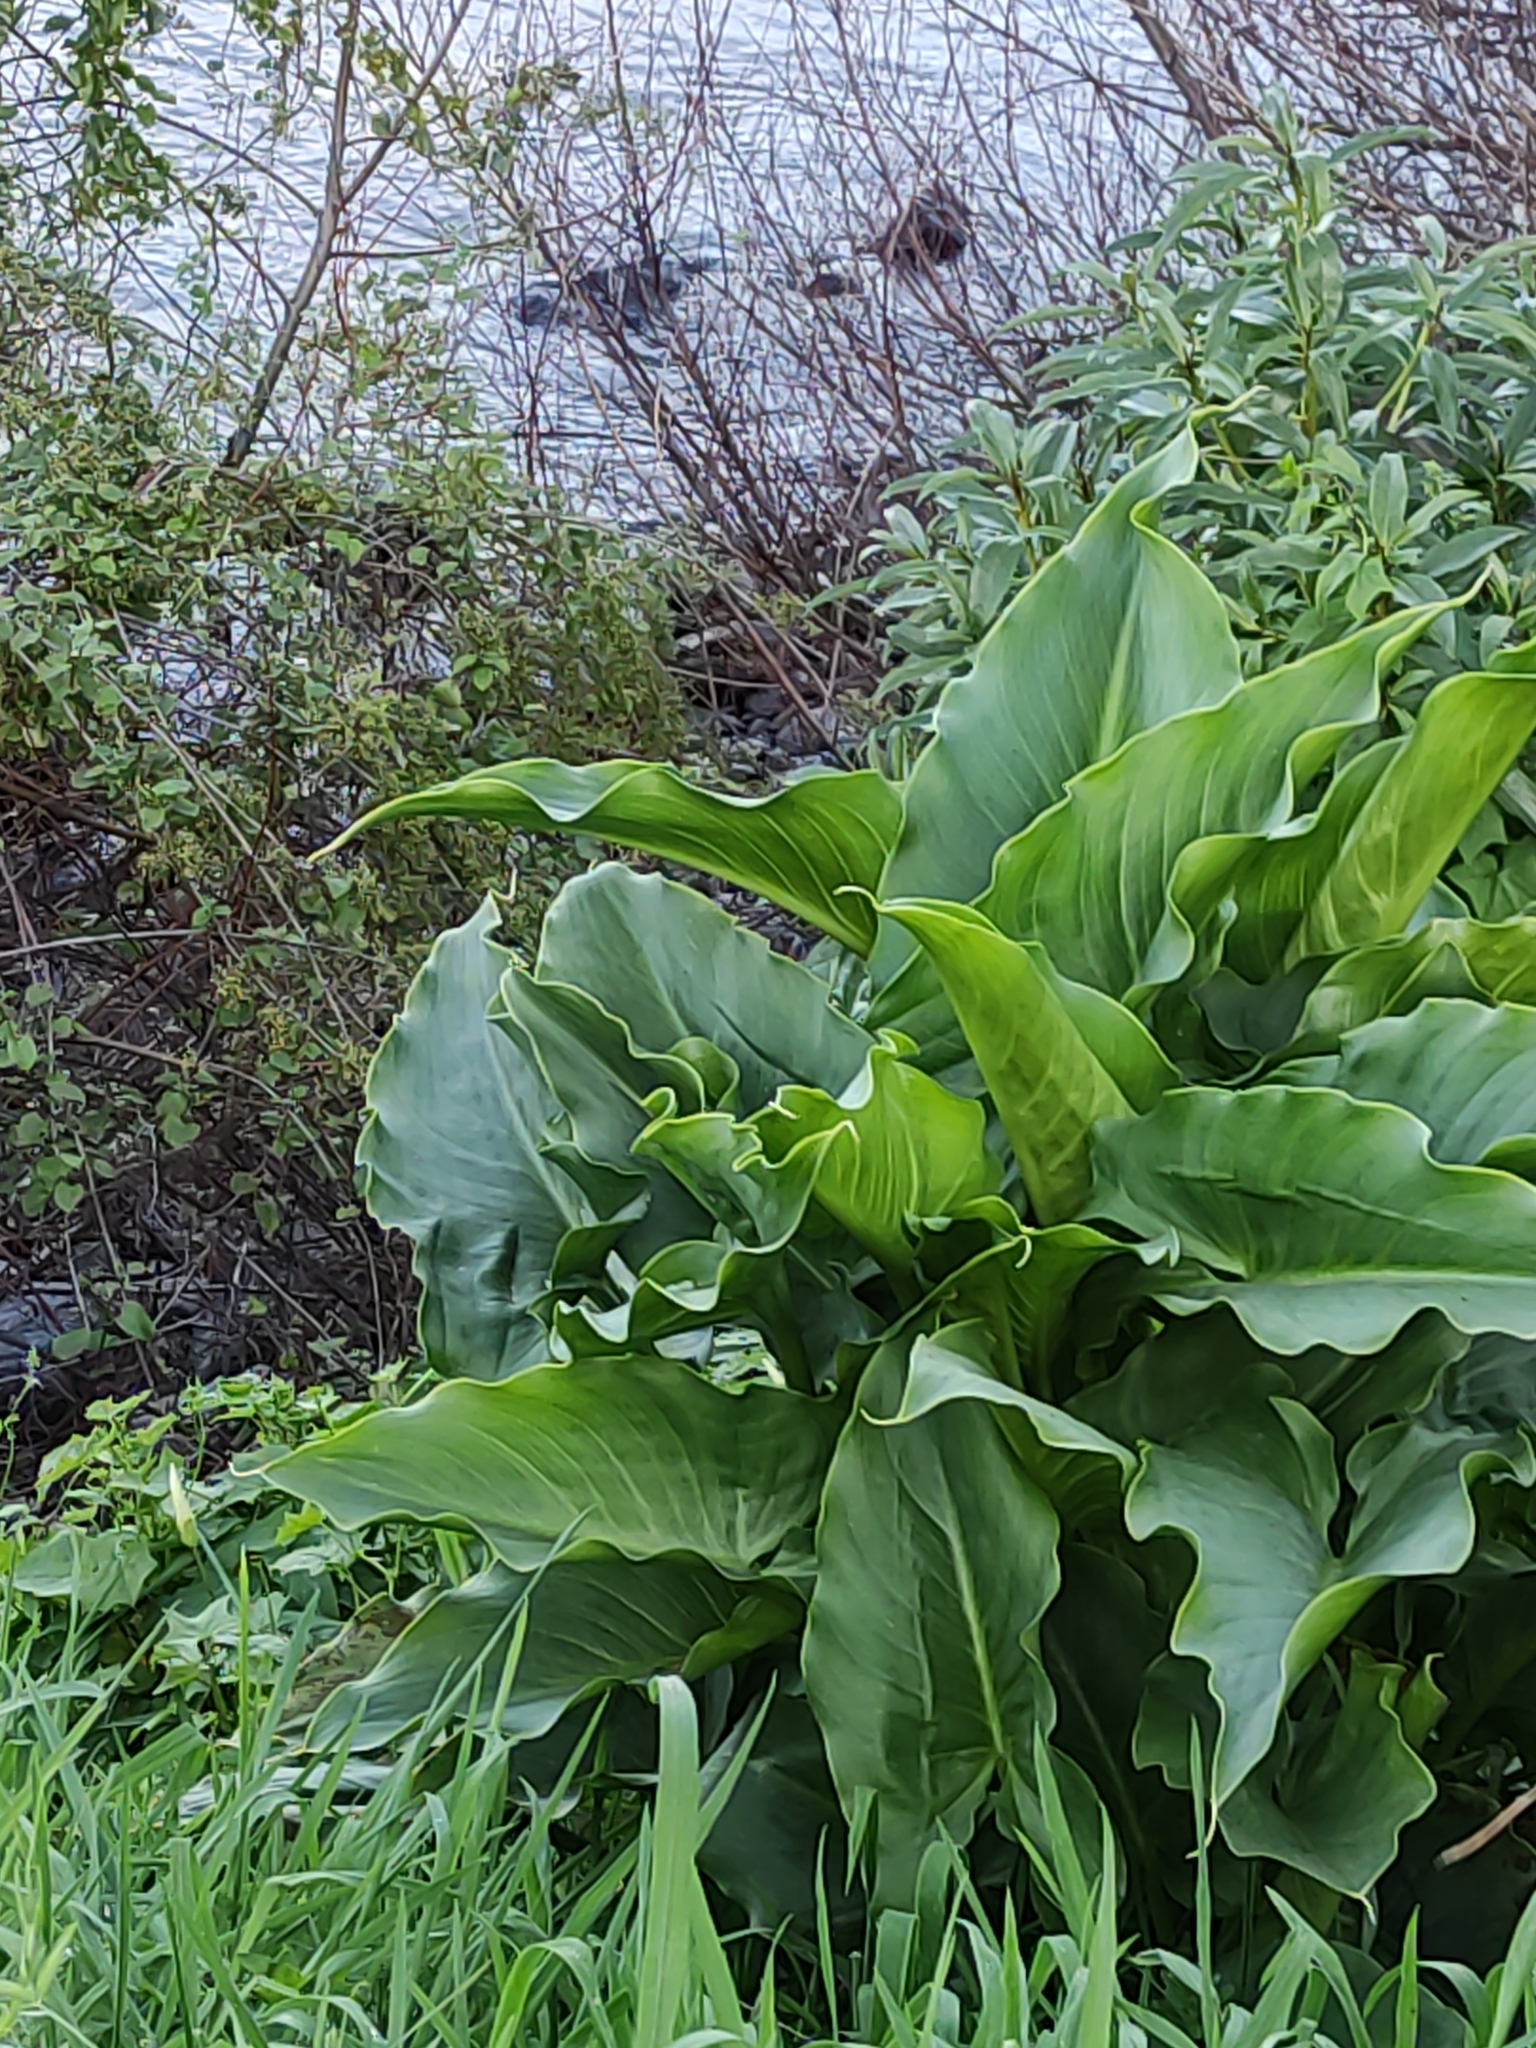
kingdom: Plantae
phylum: Tracheophyta
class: Liliopsida
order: Alismatales
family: Araceae
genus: Zantedeschia
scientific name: Zantedeschia aethiopica
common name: Altar-lily
